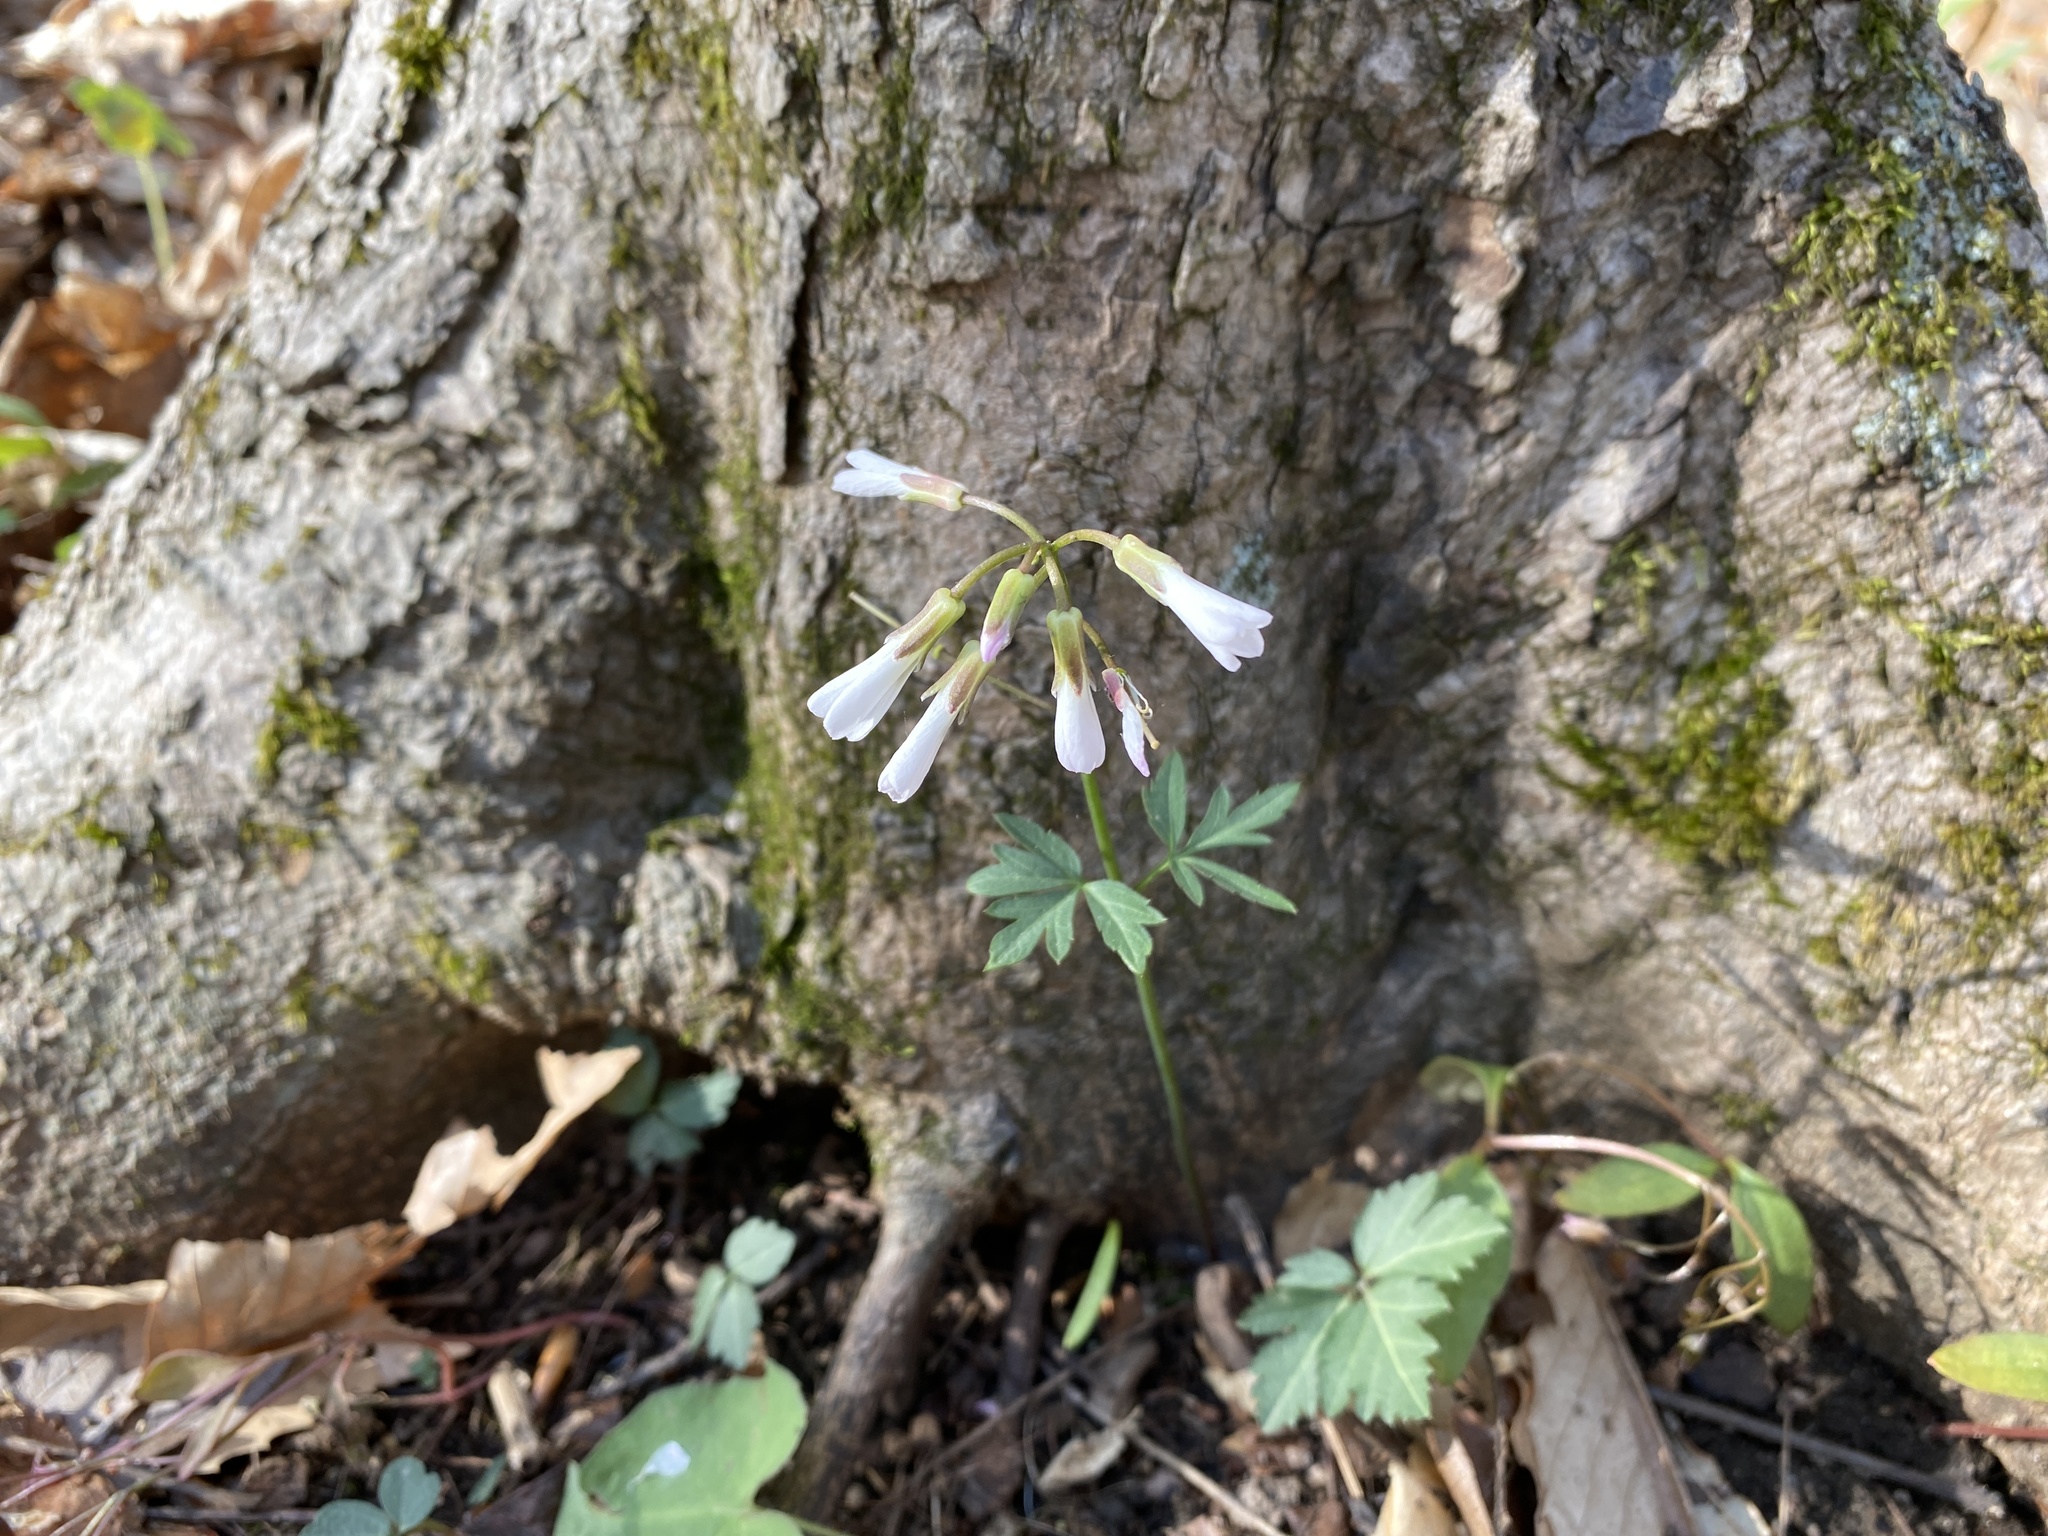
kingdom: Plantae
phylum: Tracheophyta
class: Magnoliopsida
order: Brassicales
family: Brassicaceae
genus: Cardamine
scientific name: Cardamine angustata
